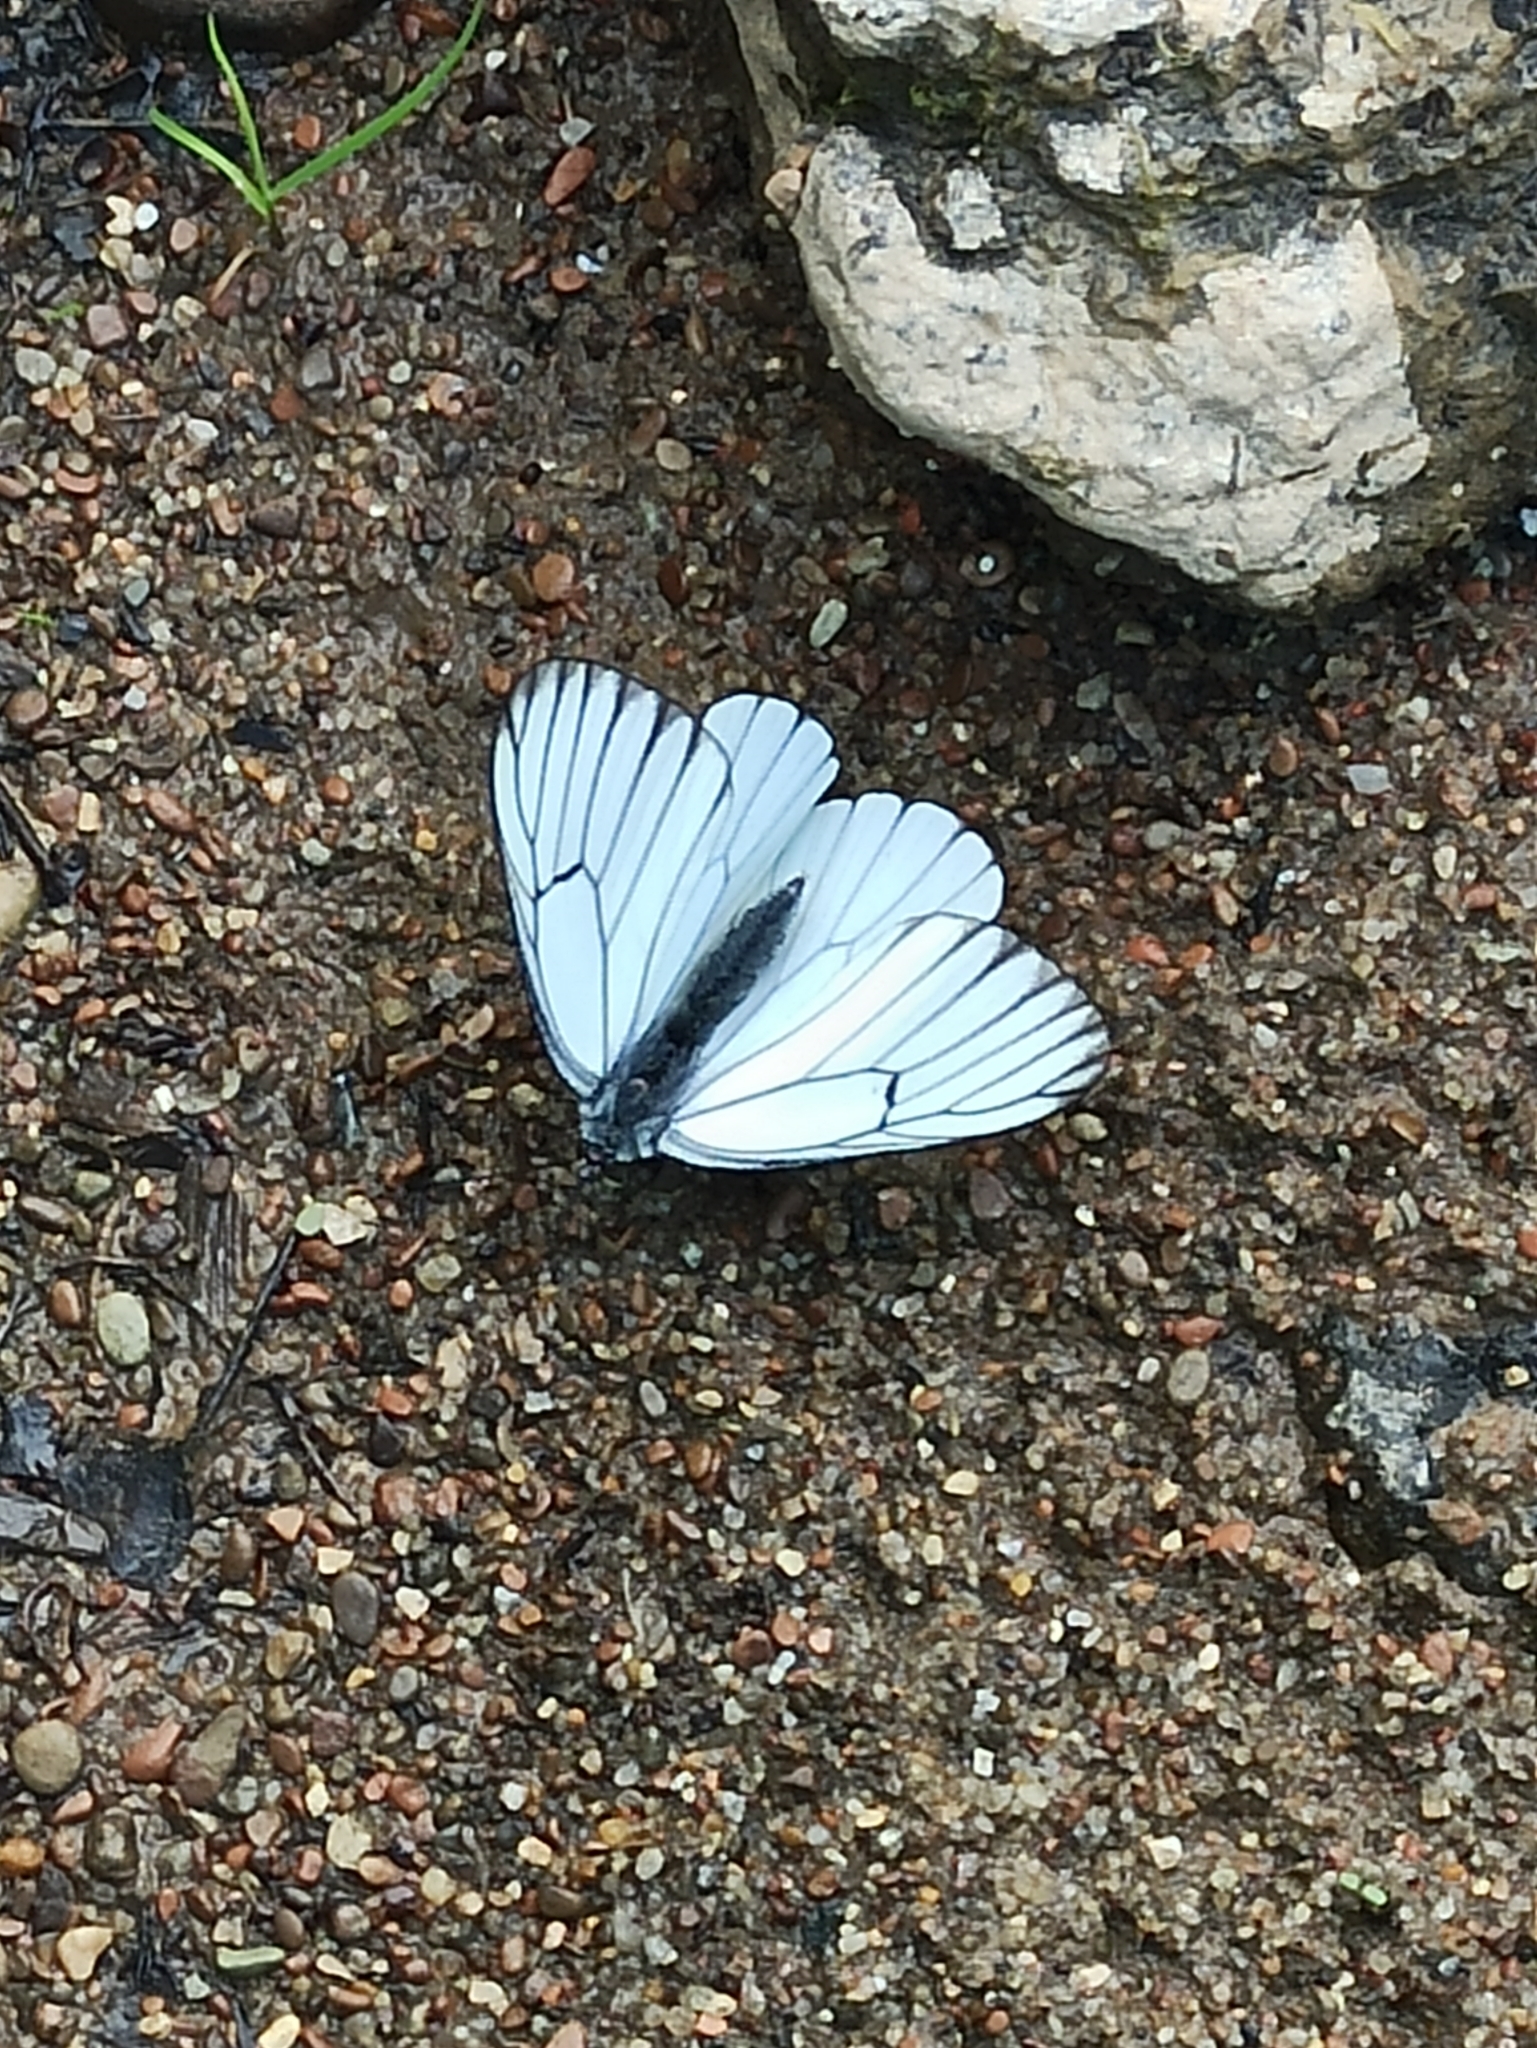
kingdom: Animalia
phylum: Arthropoda
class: Insecta
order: Lepidoptera
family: Pieridae
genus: Aporia
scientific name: Aporia crataegi
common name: Black-veined white
